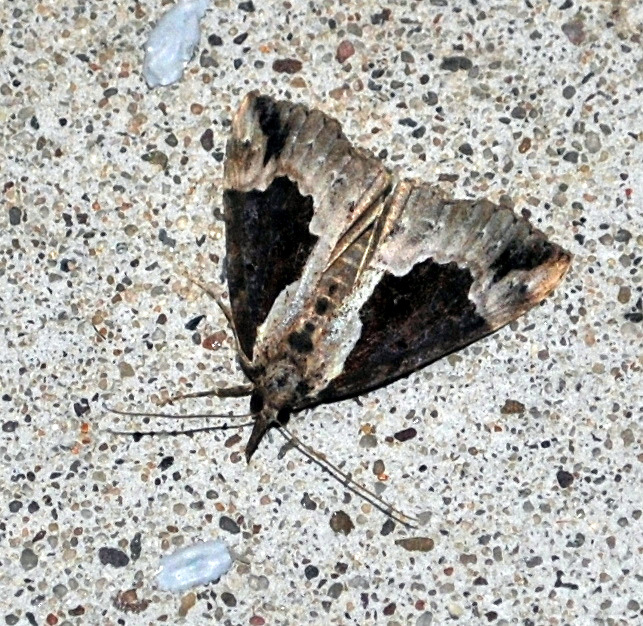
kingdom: Animalia
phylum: Arthropoda
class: Insecta
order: Lepidoptera
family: Erebidae
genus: Hypena
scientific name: Hypena baltimoralis
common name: Baltimore snout
